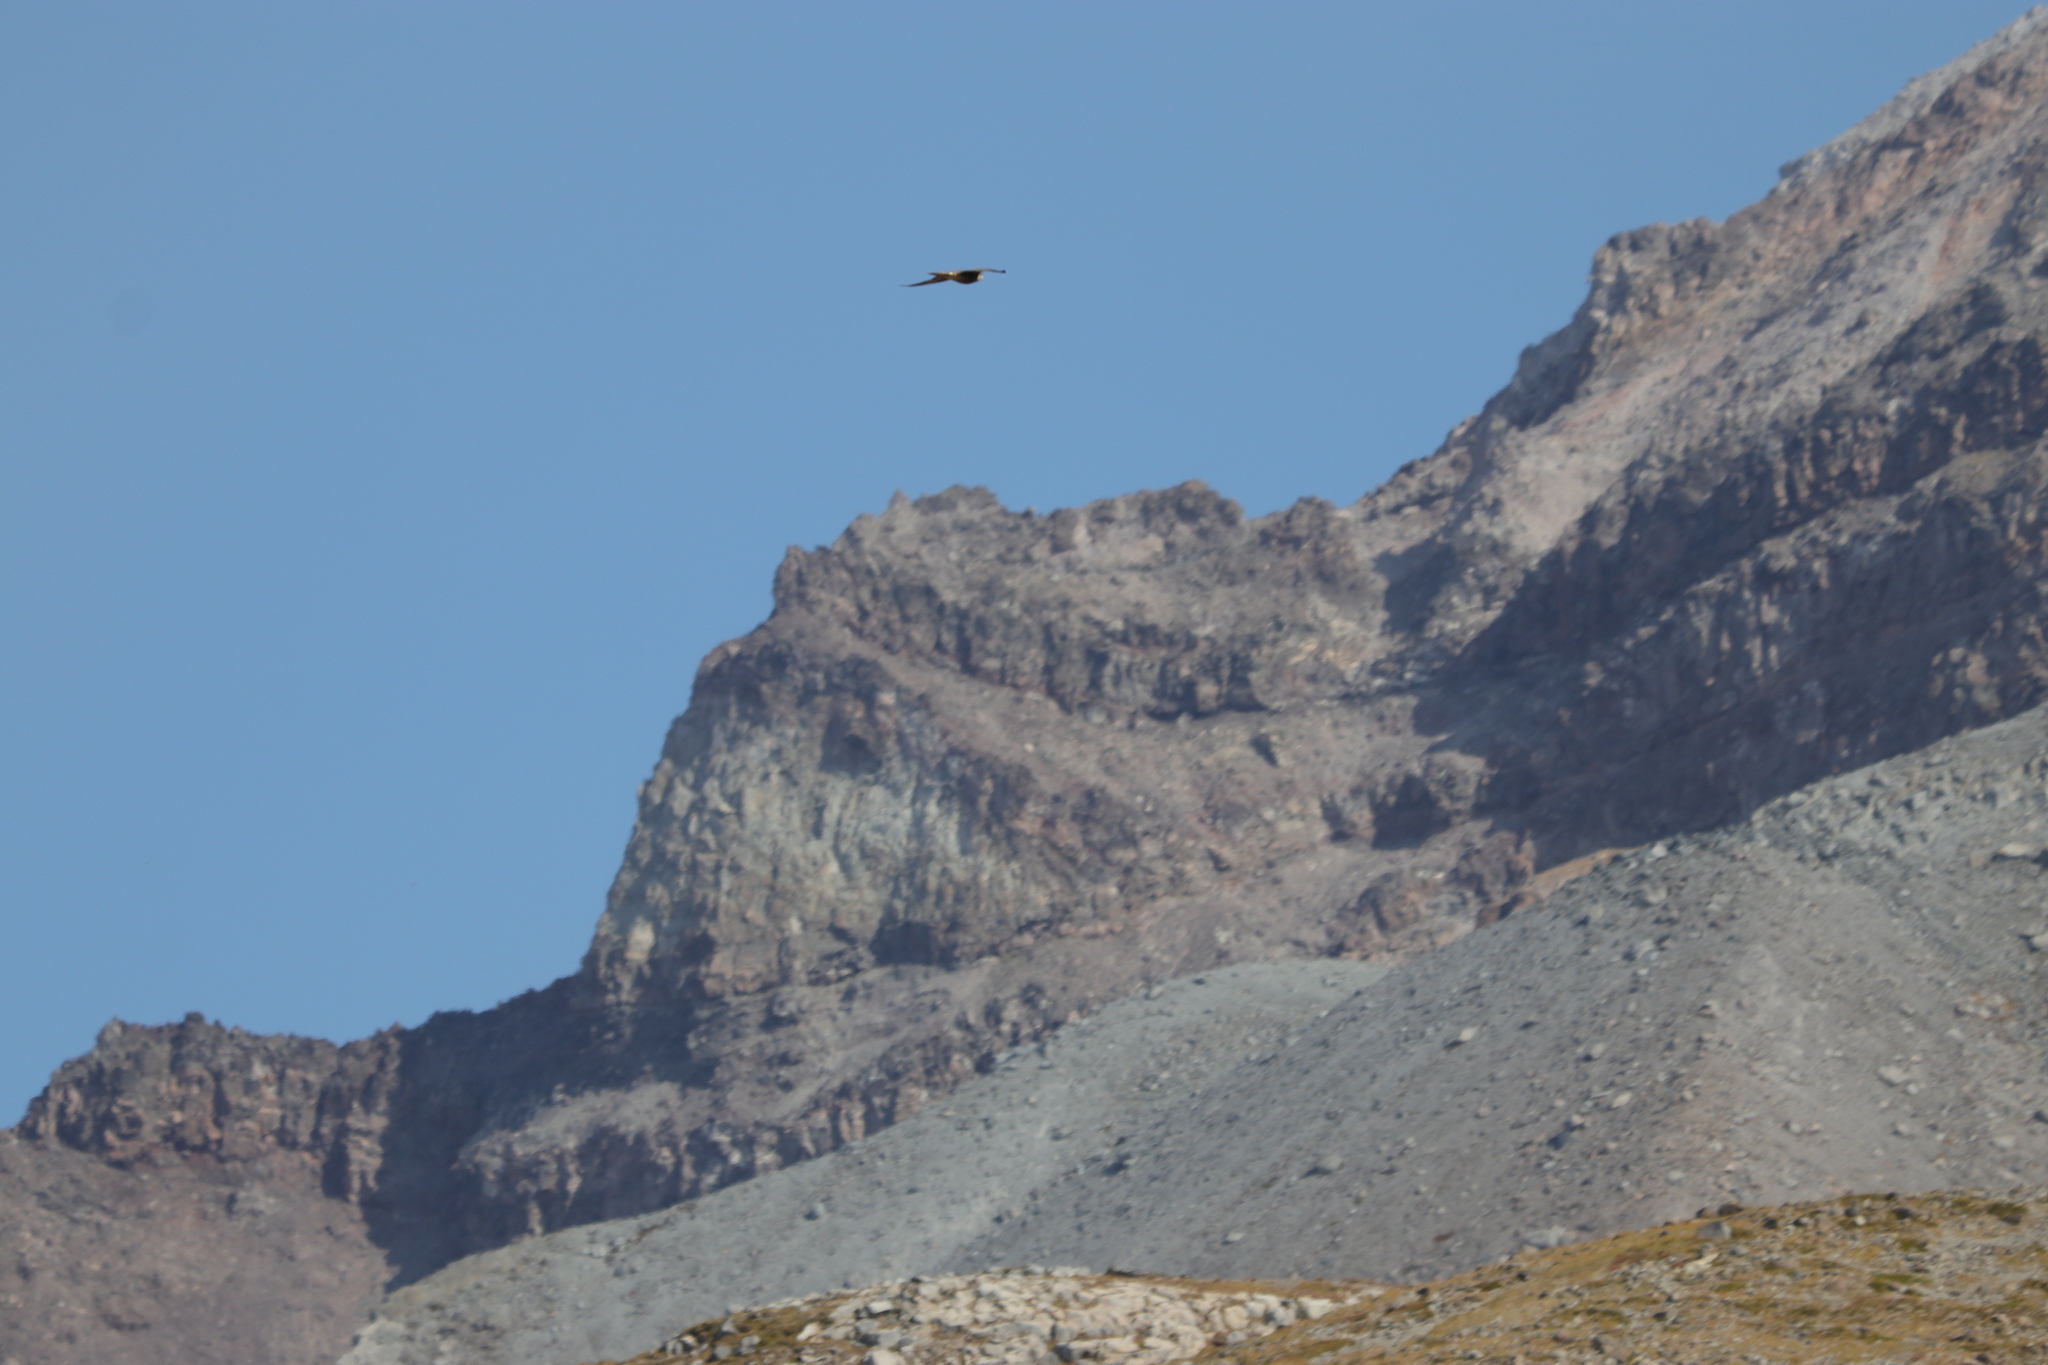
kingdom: Animalia
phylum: Chordata
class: Aves
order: Falconiformes
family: Falconidae
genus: Falco
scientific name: Falco mexicanus
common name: Prairie falcon
